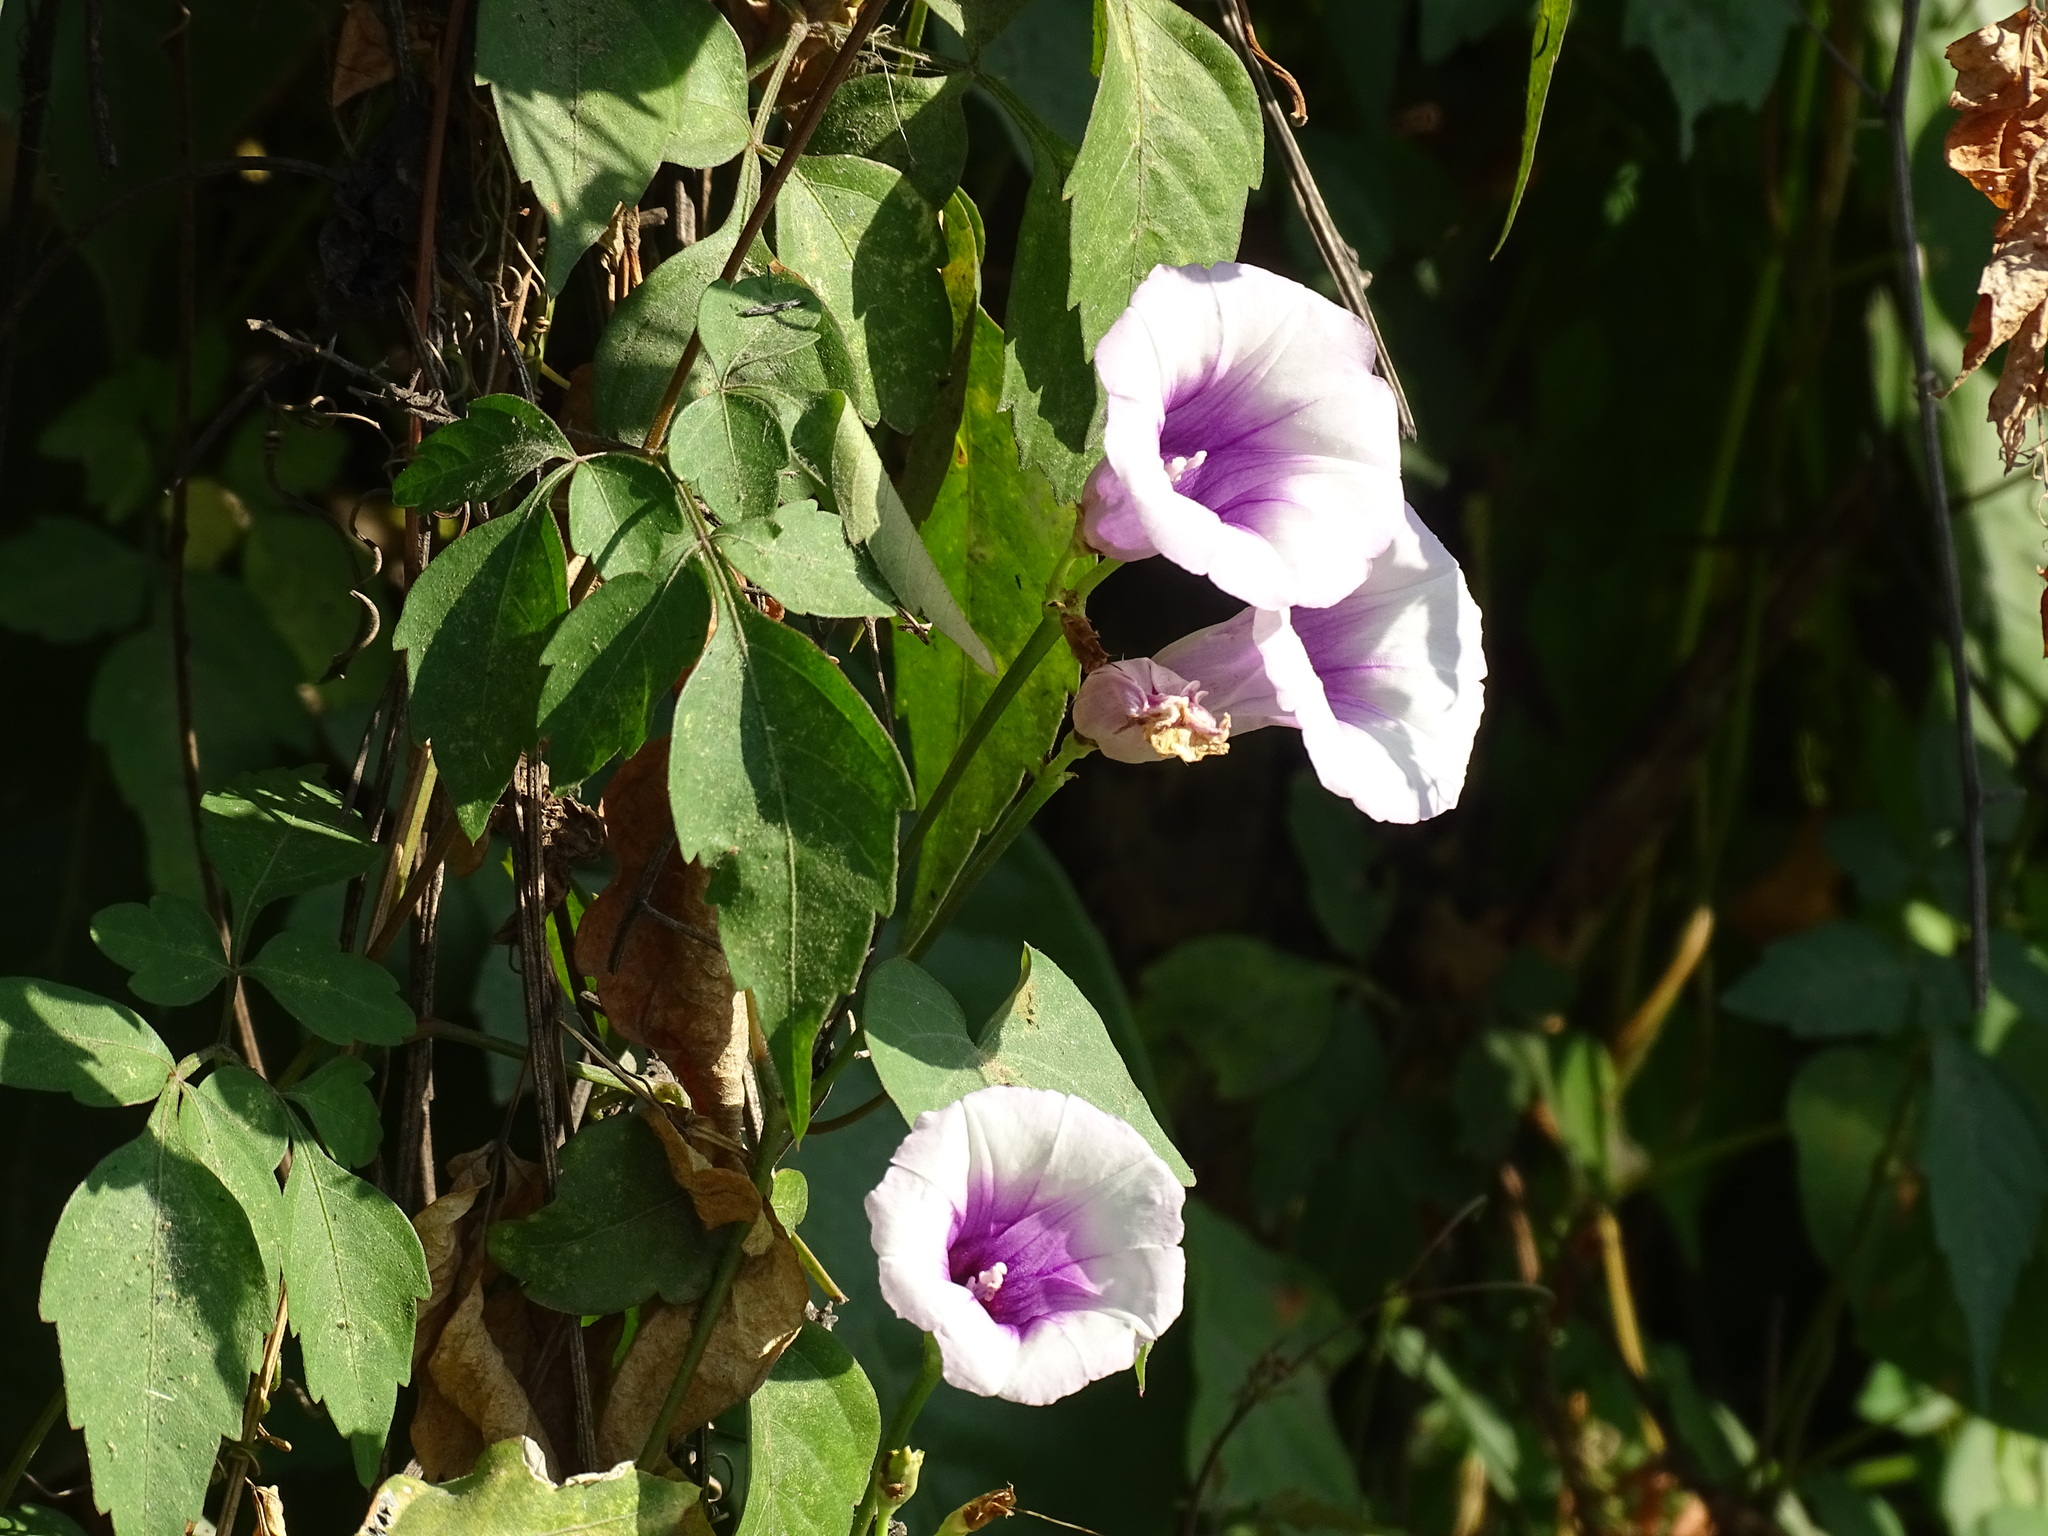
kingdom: Plantae
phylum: Tracheophyta
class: Magnoliopsida
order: Solanales
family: Convolvulaceae
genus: Ipomoea
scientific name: Ipomoea batatas
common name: Sweet-potato
